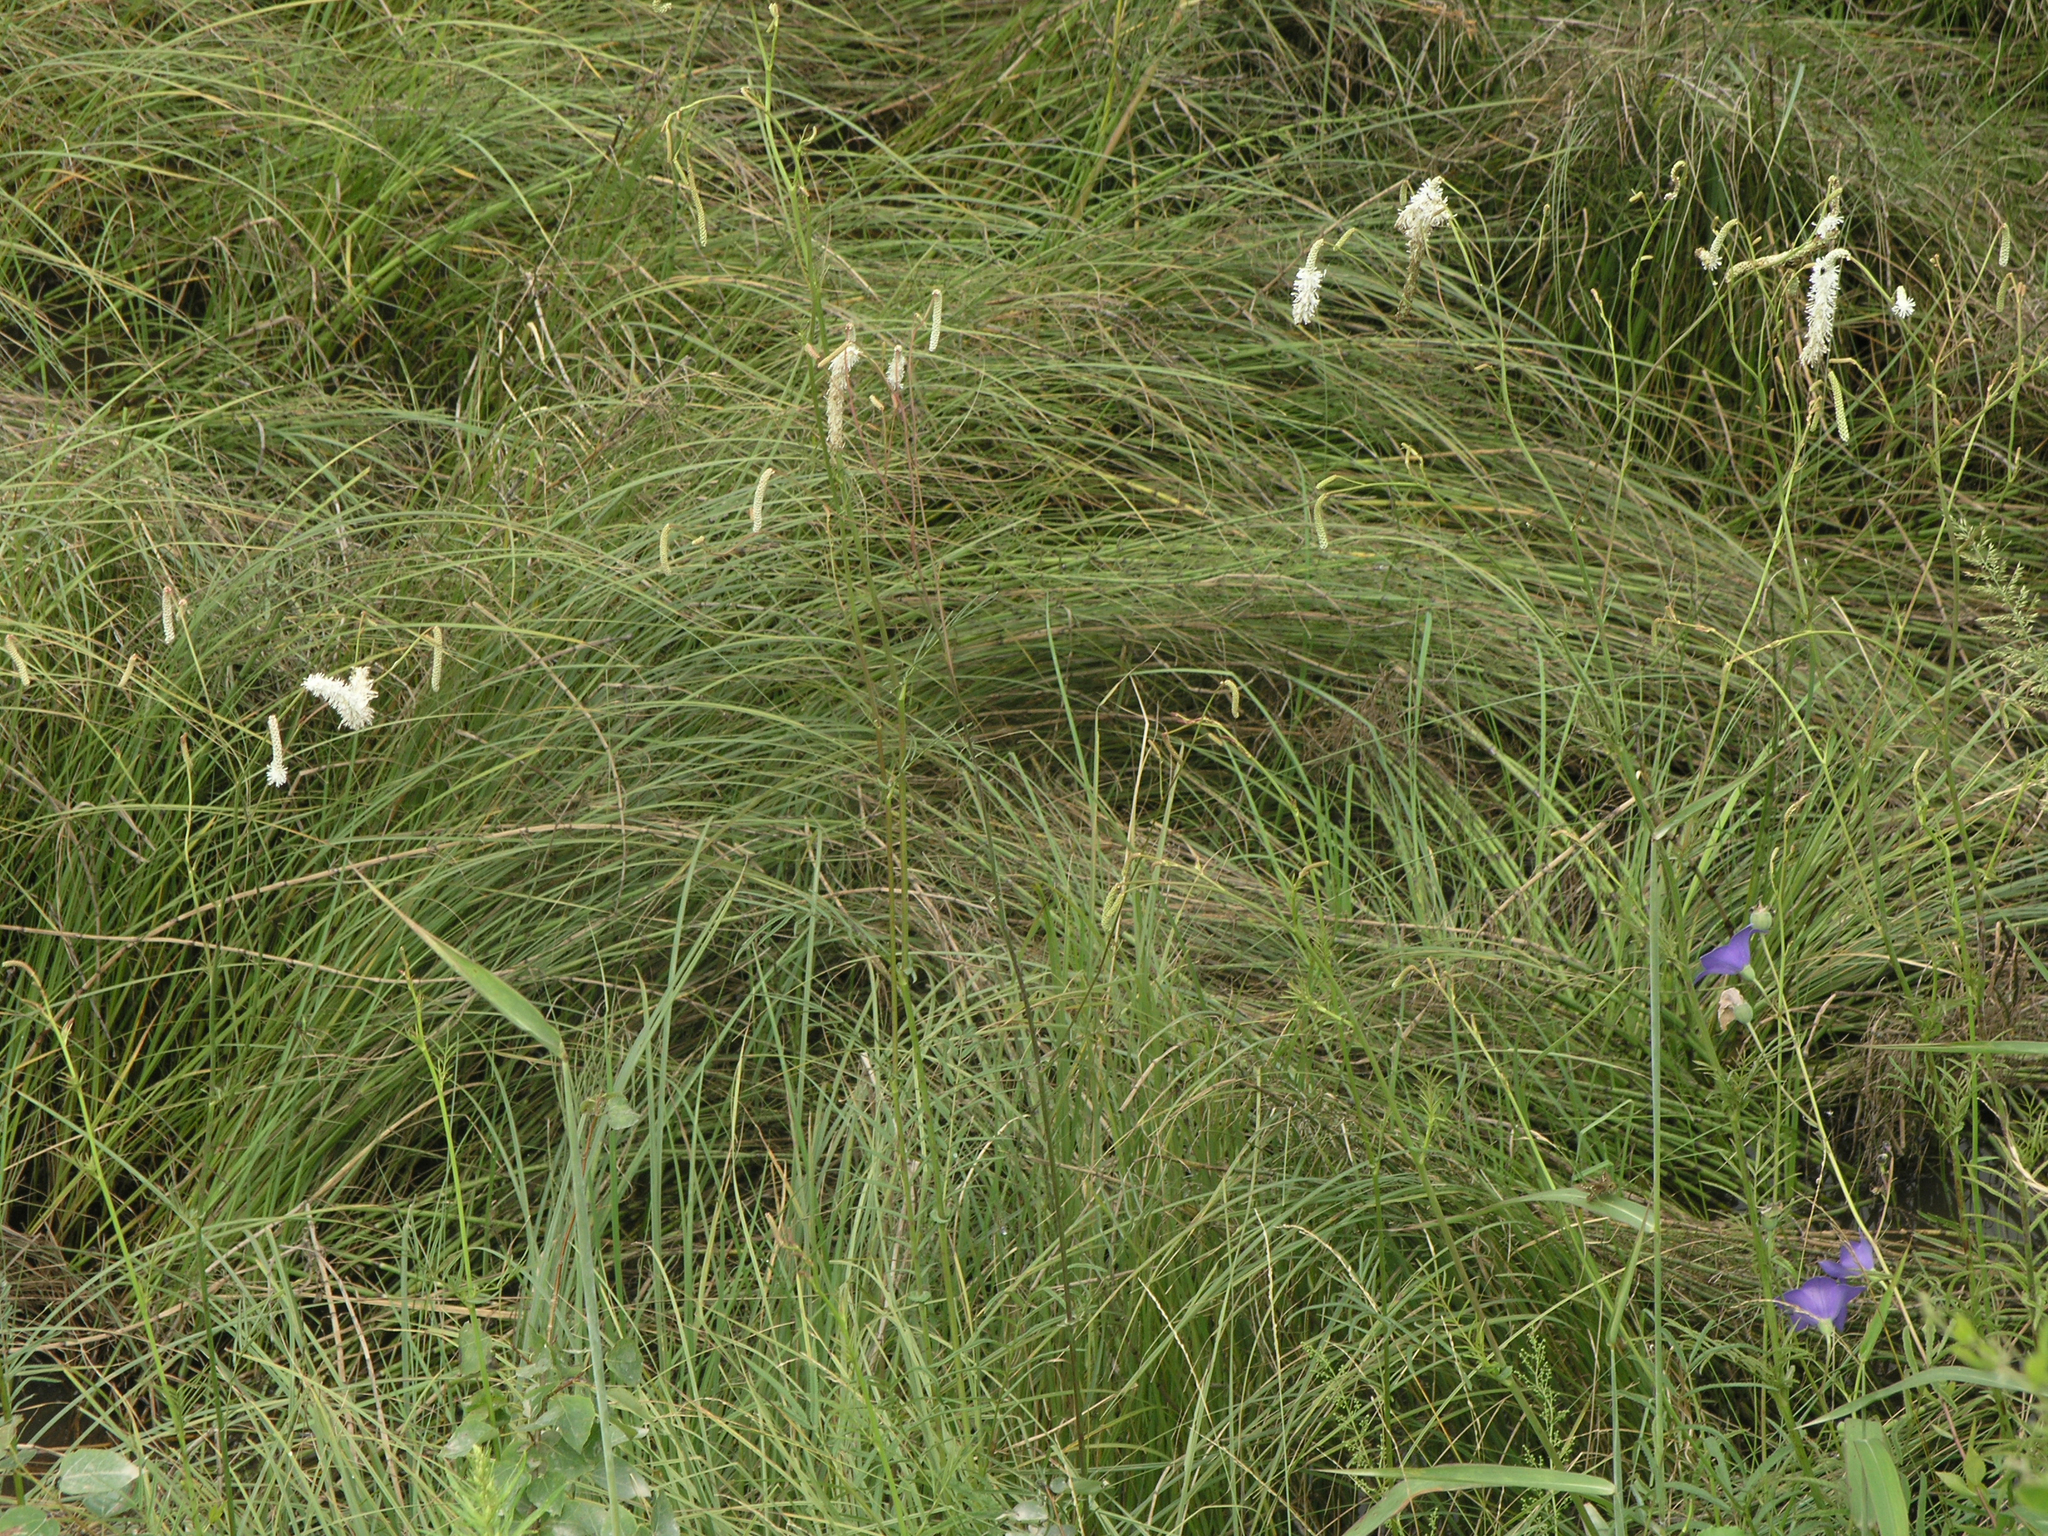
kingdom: Plantae
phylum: Tracheophyta
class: Magnoliopsida
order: Rosales
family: Rosaceae
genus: Poterium
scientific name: Poterium tenuifolium
